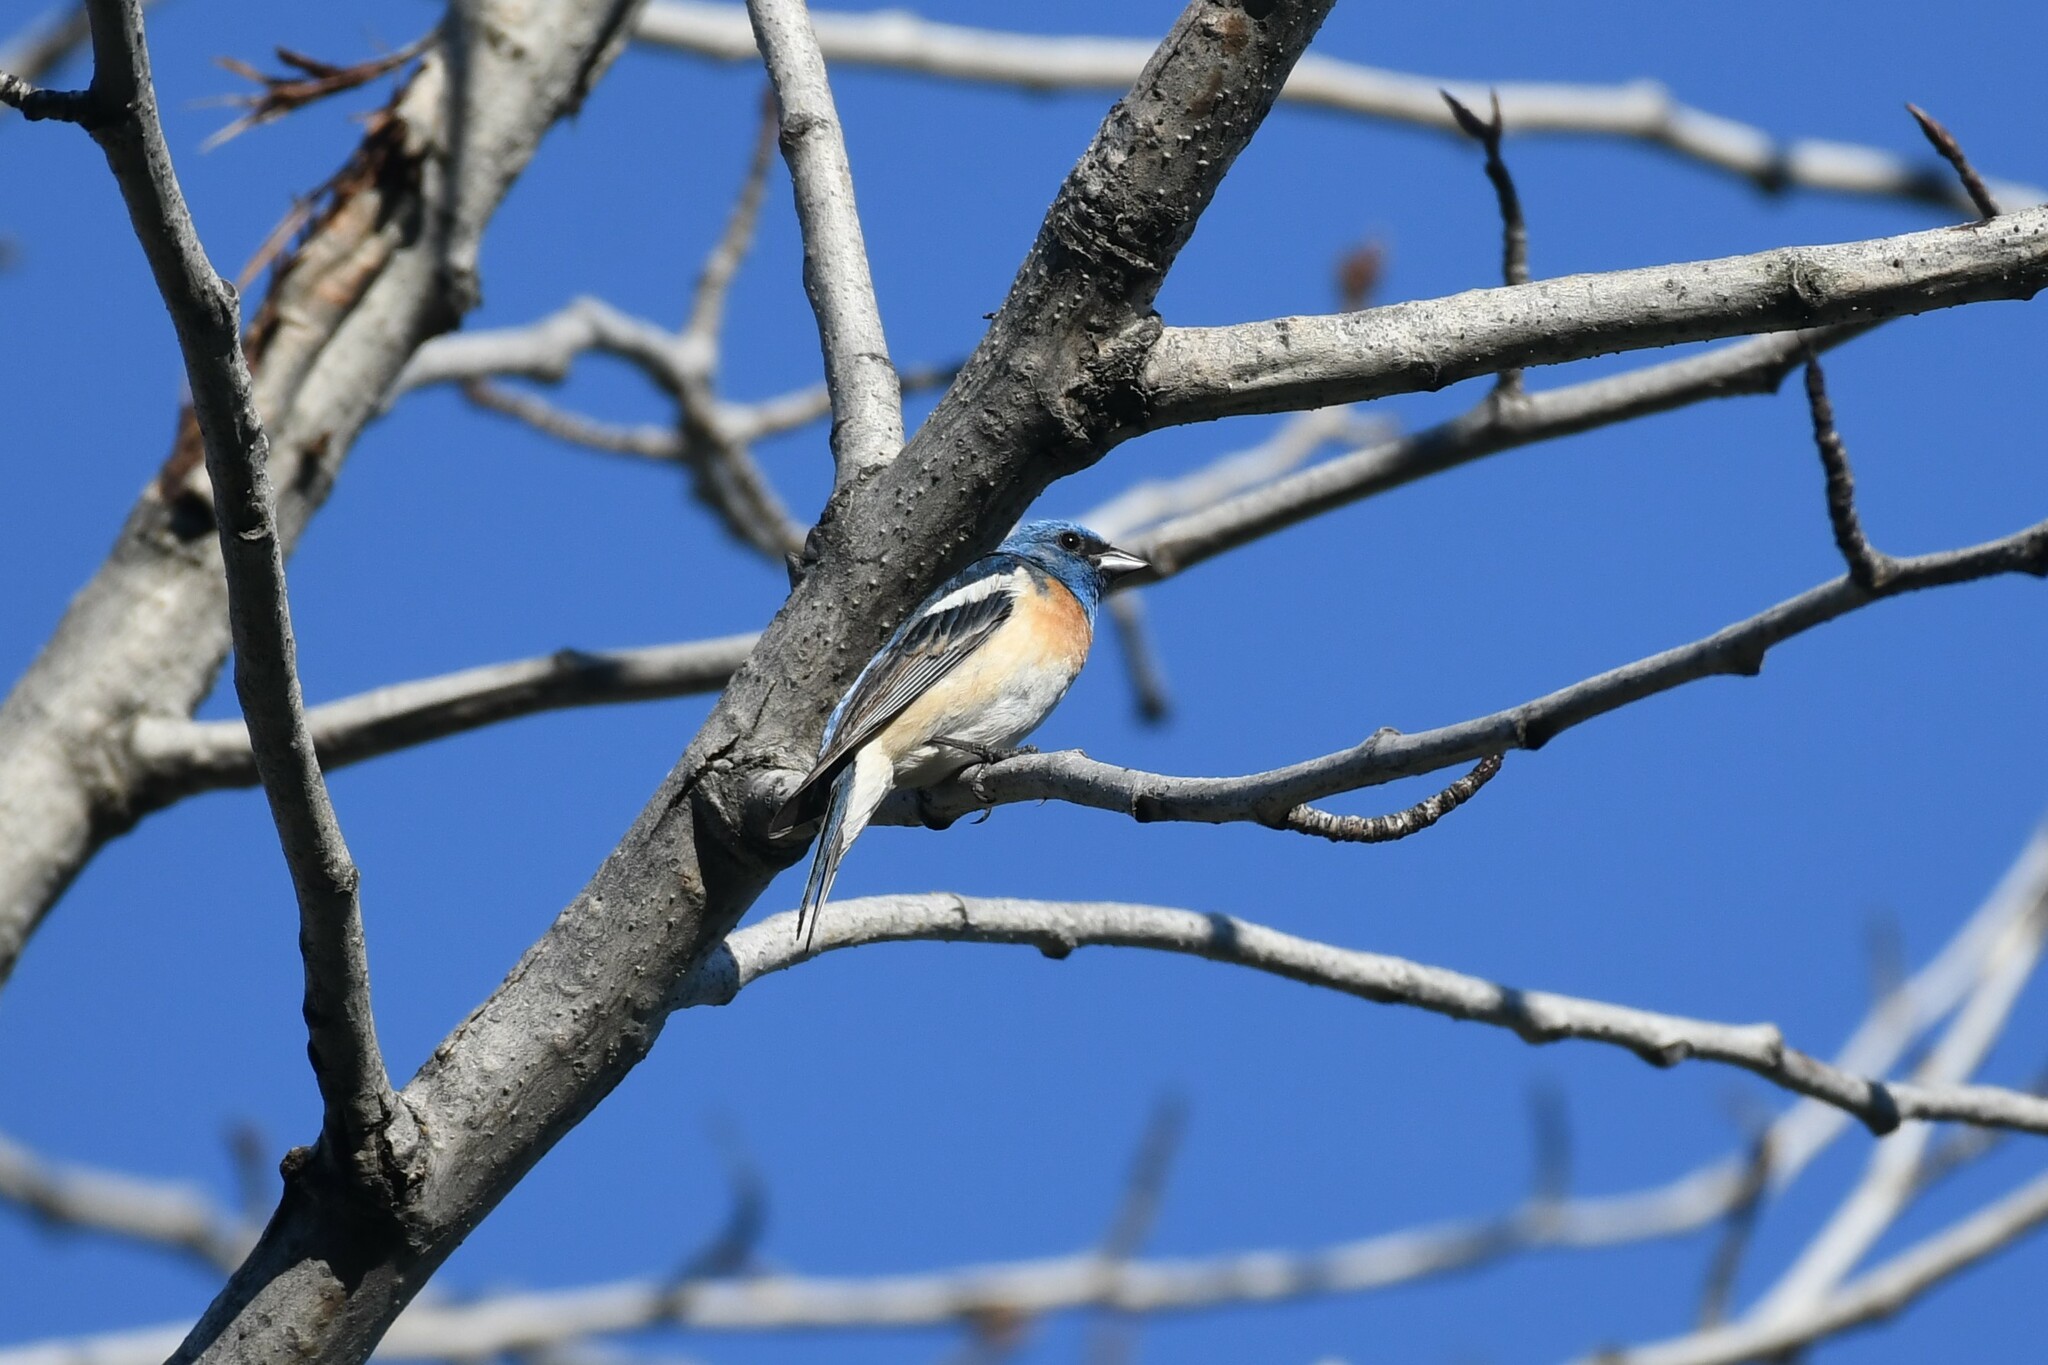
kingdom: Animalia
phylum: Chordata
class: Aves
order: Passeriformes
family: Cardinalidae
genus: Passerina
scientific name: Passerina amoena
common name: Lazuli bunting
